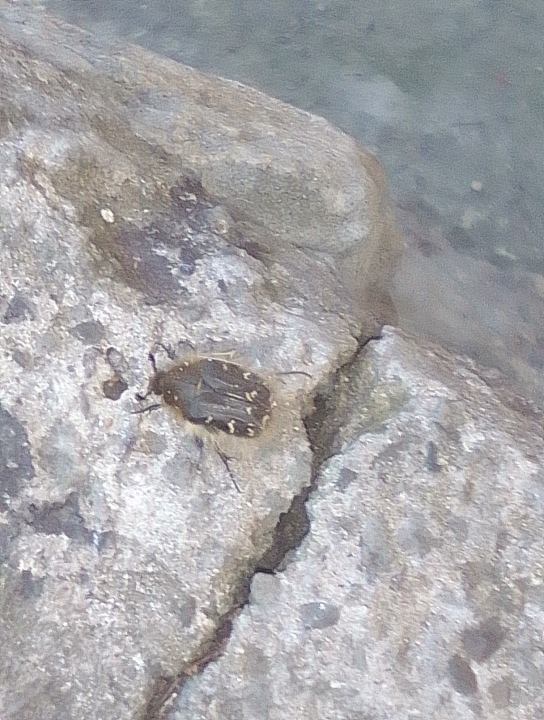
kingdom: Animalia
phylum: Arthropoda
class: Insecta
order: Coleoptera
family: Scarabaeidae
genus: Tropinota
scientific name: Tropinota hirta
